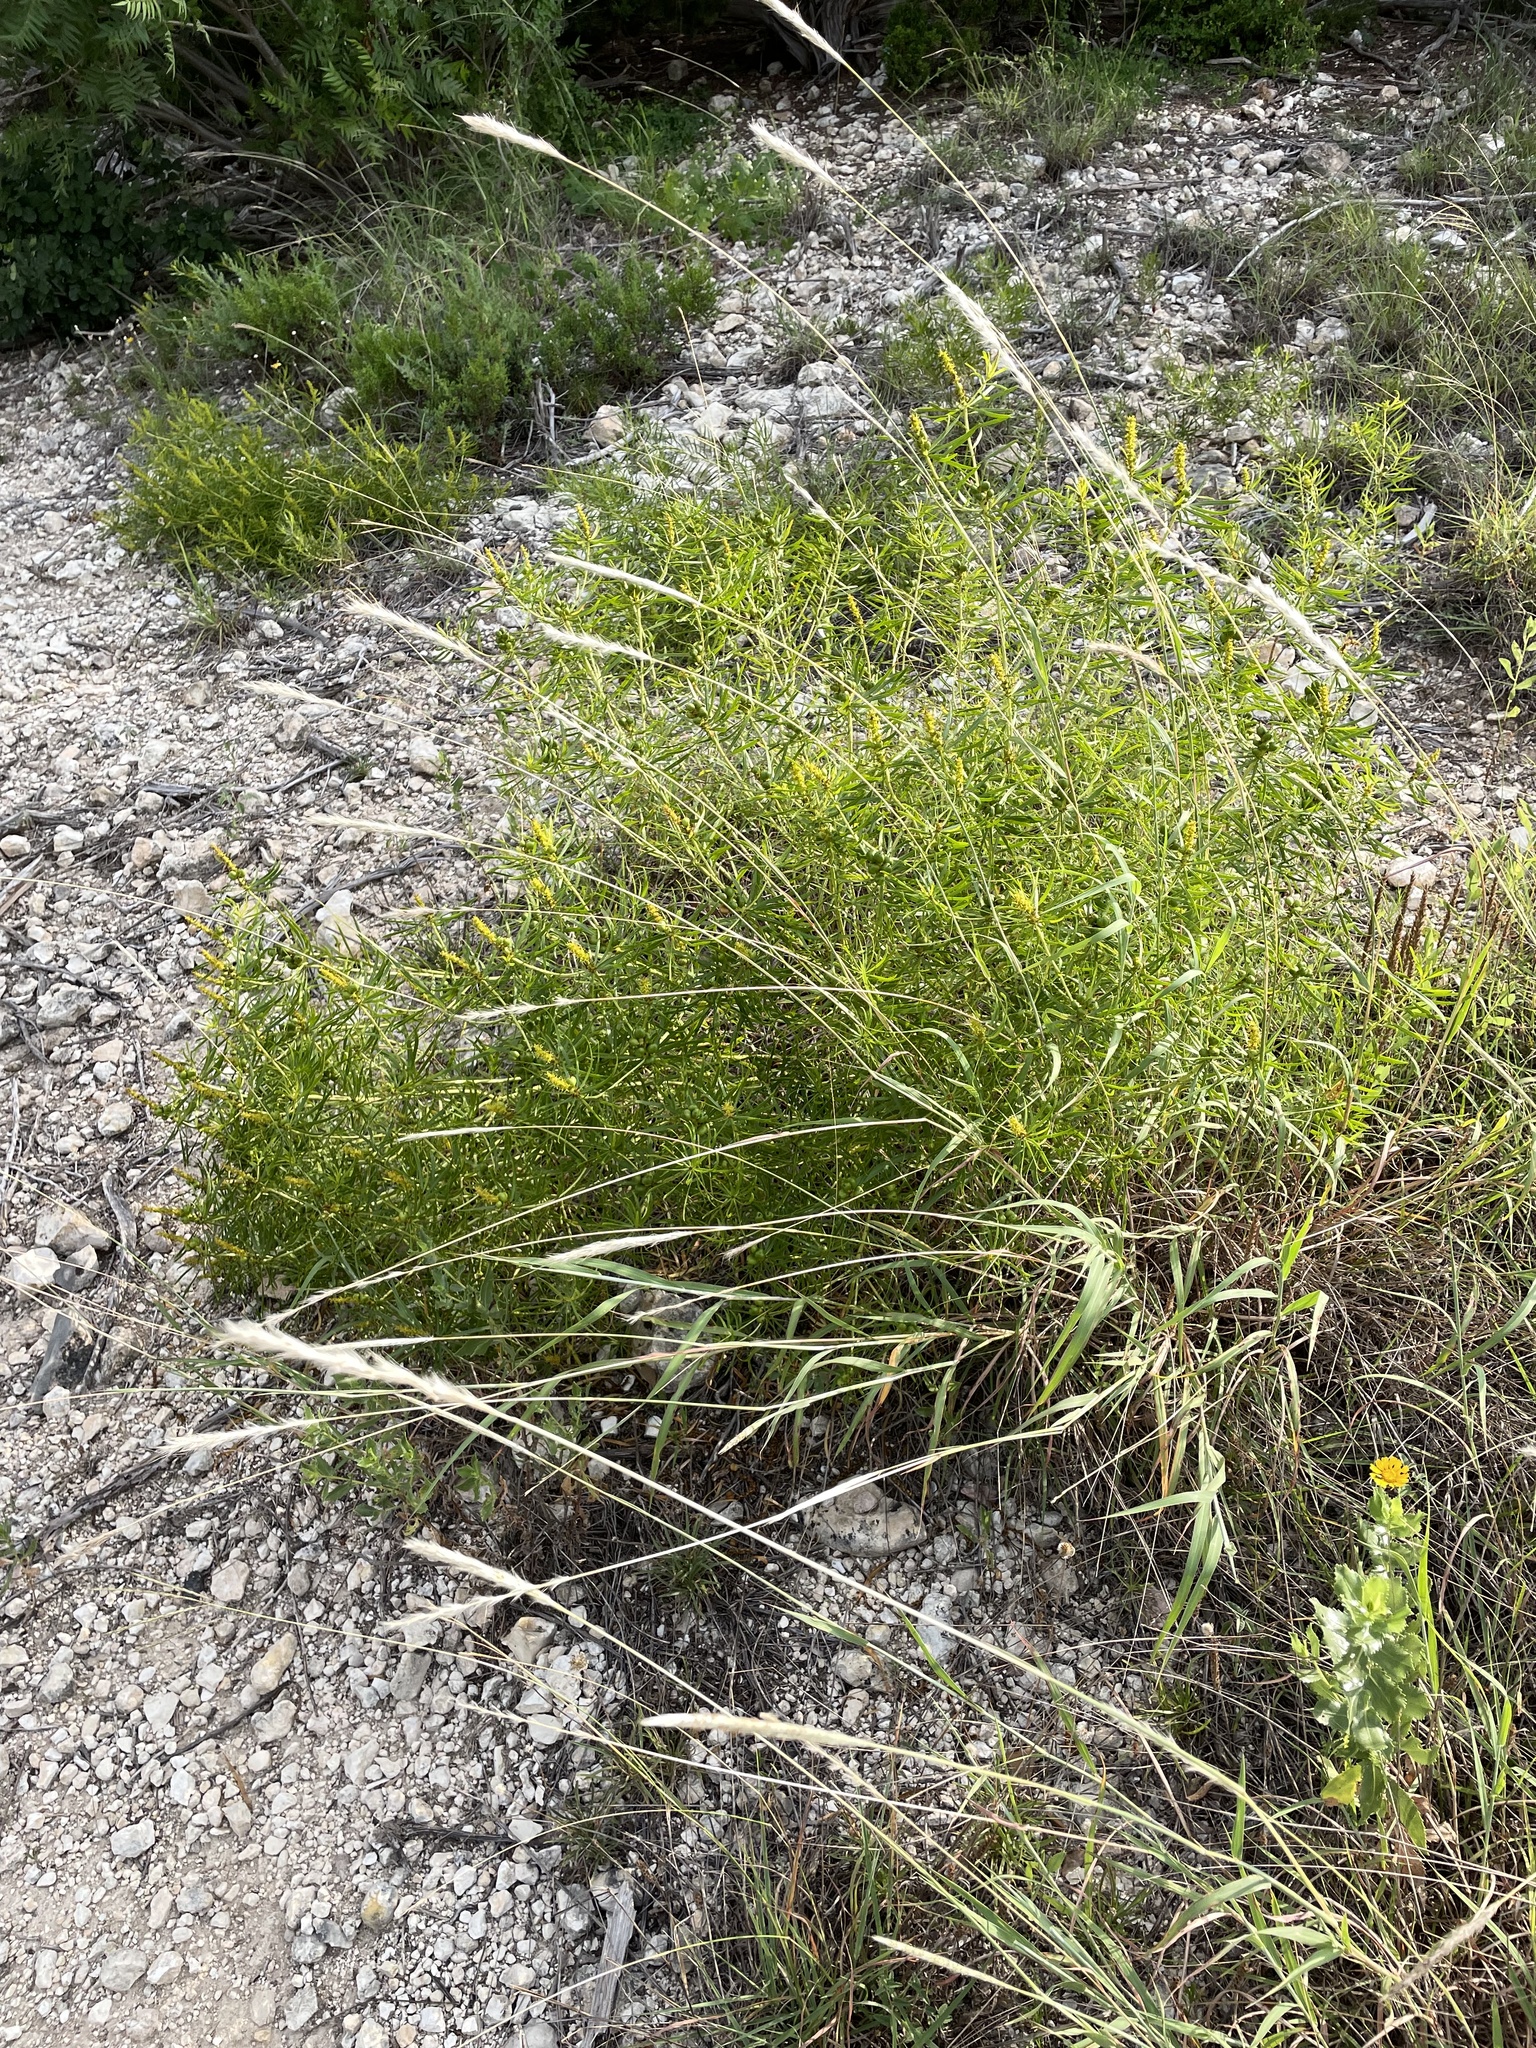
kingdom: Plantae
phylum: Tracheophyta
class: Magnoliopsida
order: Malpighiales
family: Euphorbiaceae
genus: Stillingia
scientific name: Stillingia texana
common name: Texas stillingia
